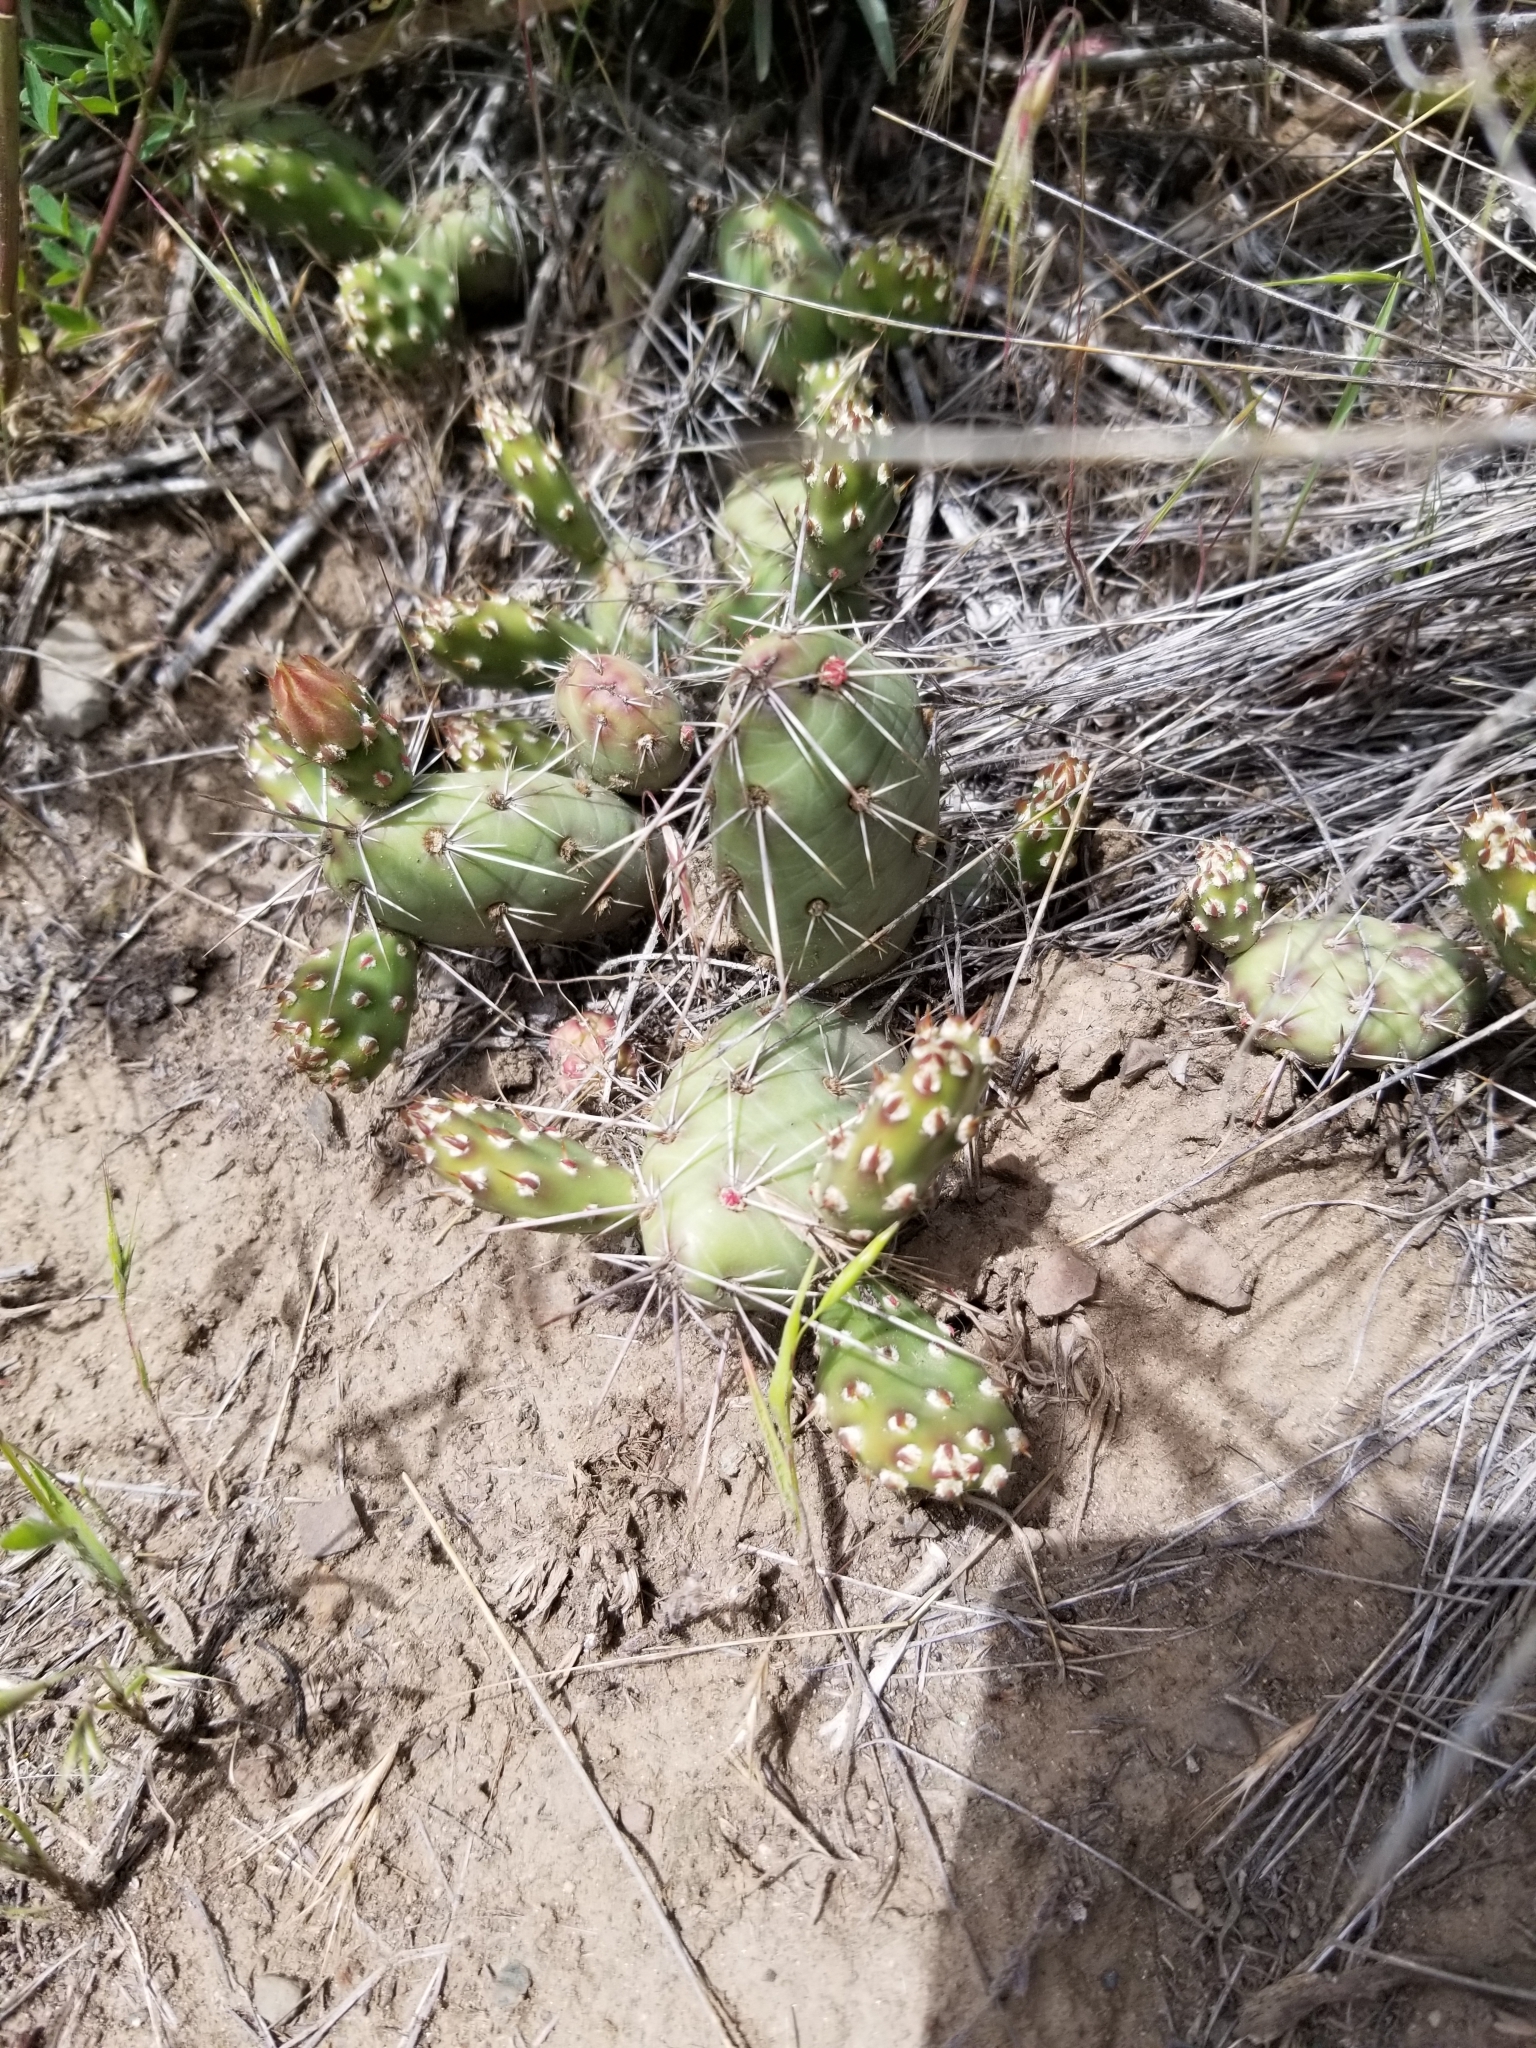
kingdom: Plantae
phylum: Tracheophyta
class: Magnoliopsida
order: Caryophyllales
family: Cactaceae
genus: Opuntia
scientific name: Opuntia fragilis
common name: Brittle cactus
